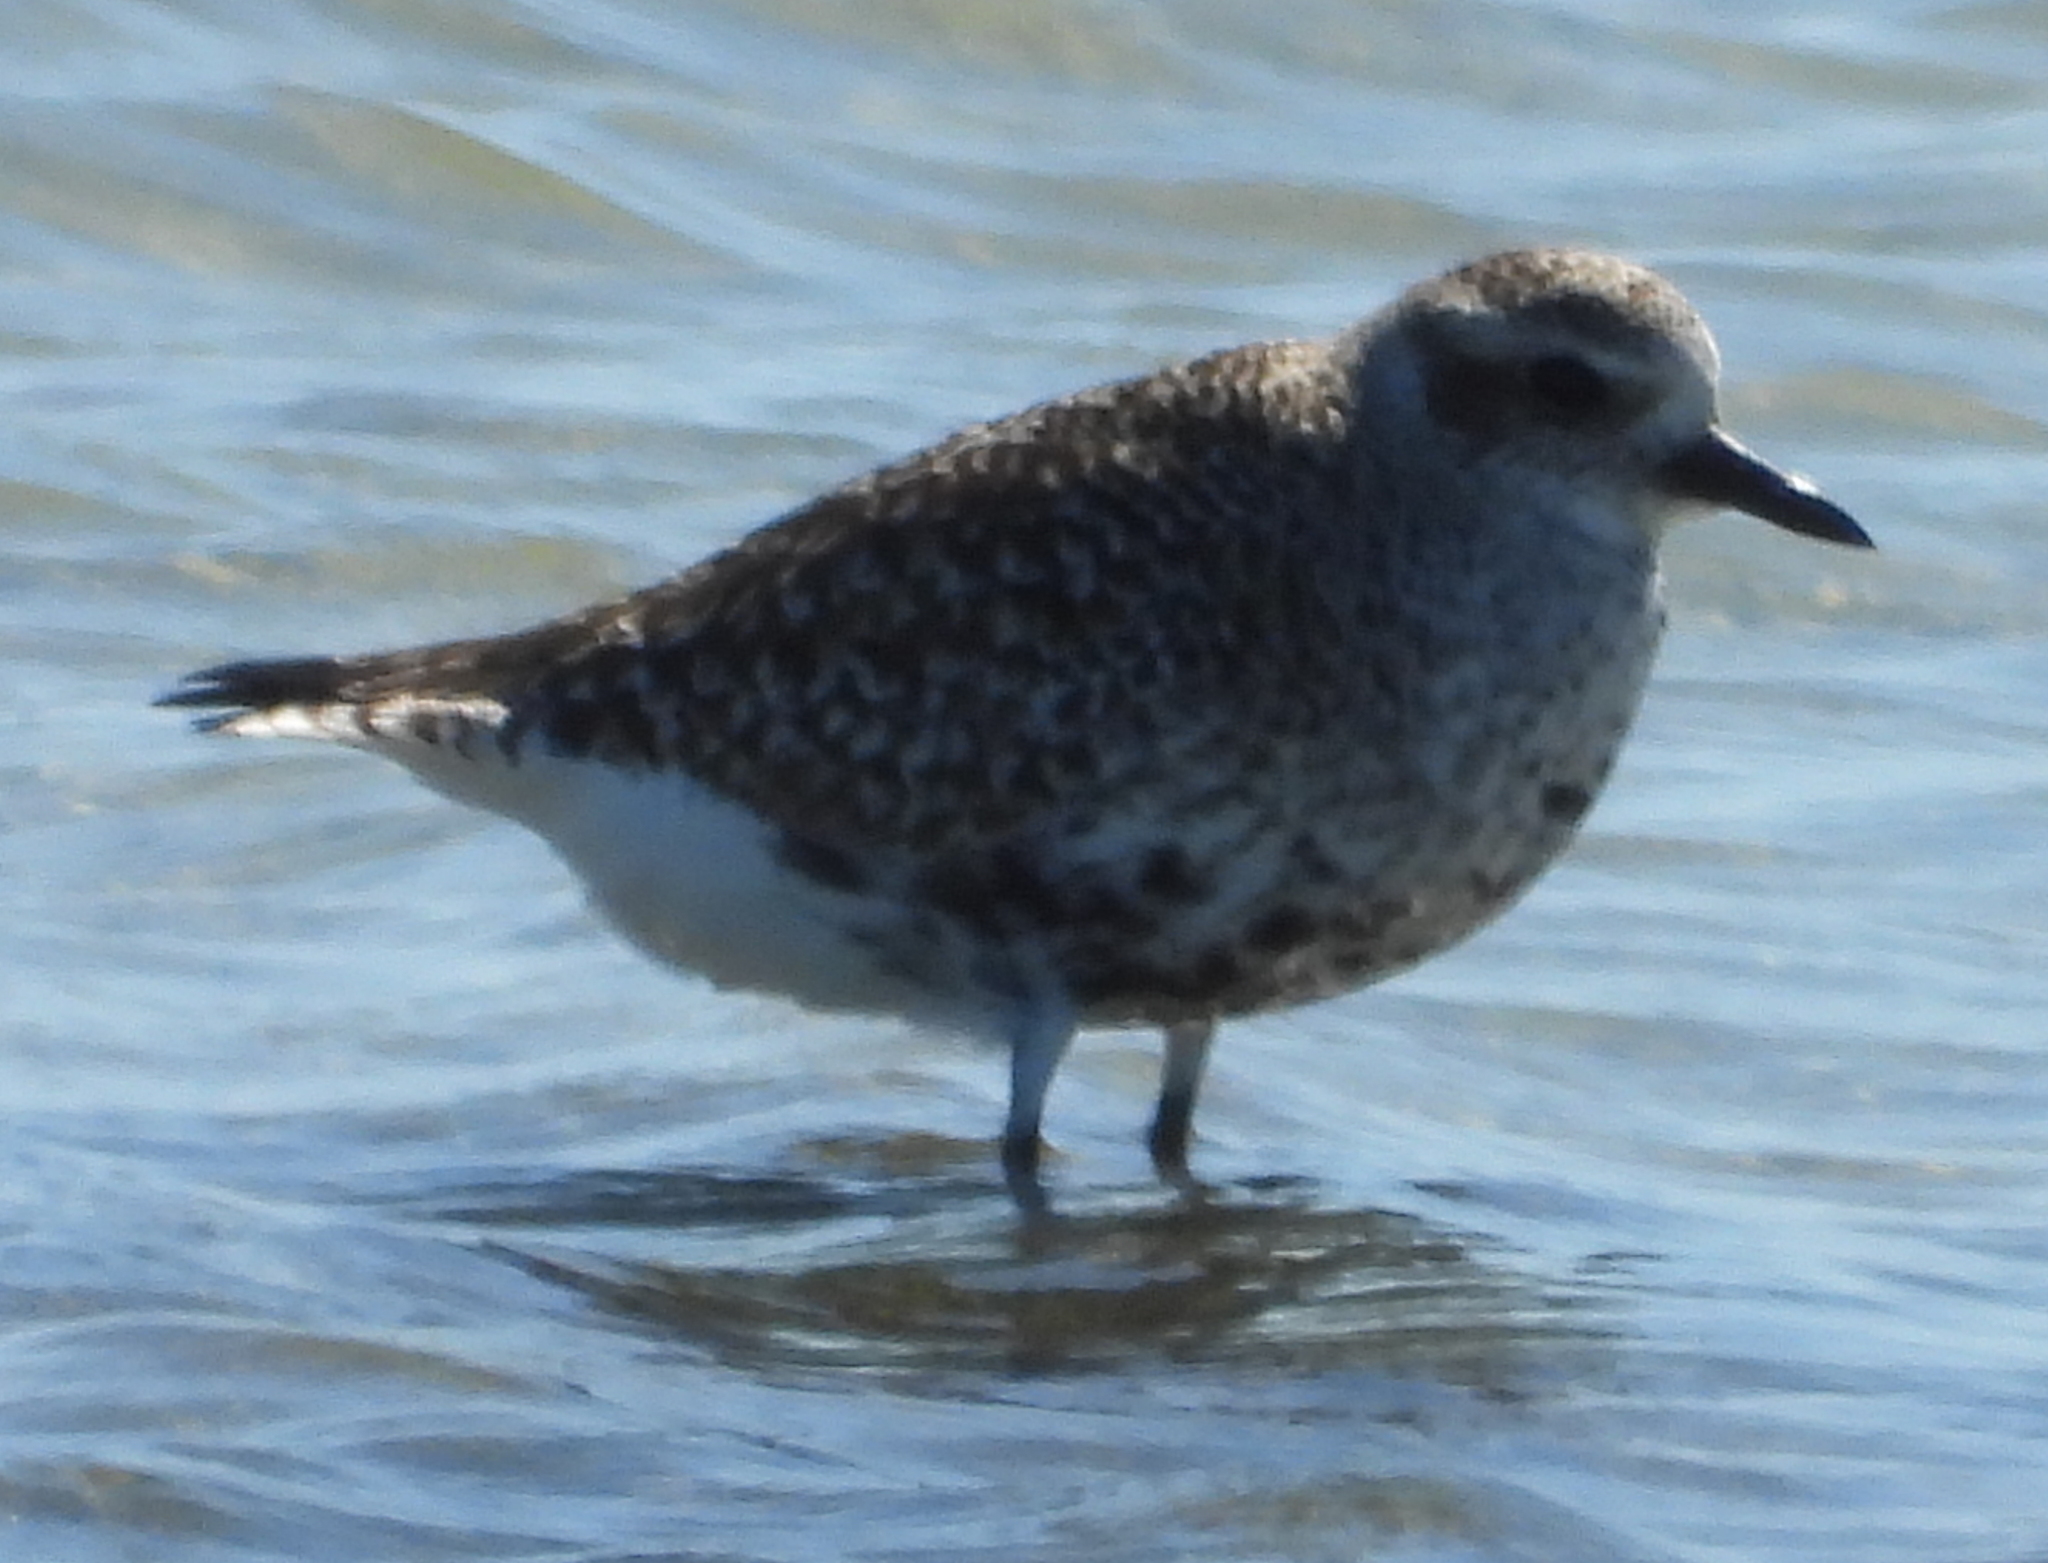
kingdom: Animalia
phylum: Chordata
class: Aves
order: Charadriiformes
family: Charadriidae
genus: Pluvialis
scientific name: Pluvialis squatarola
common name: Grey plover
